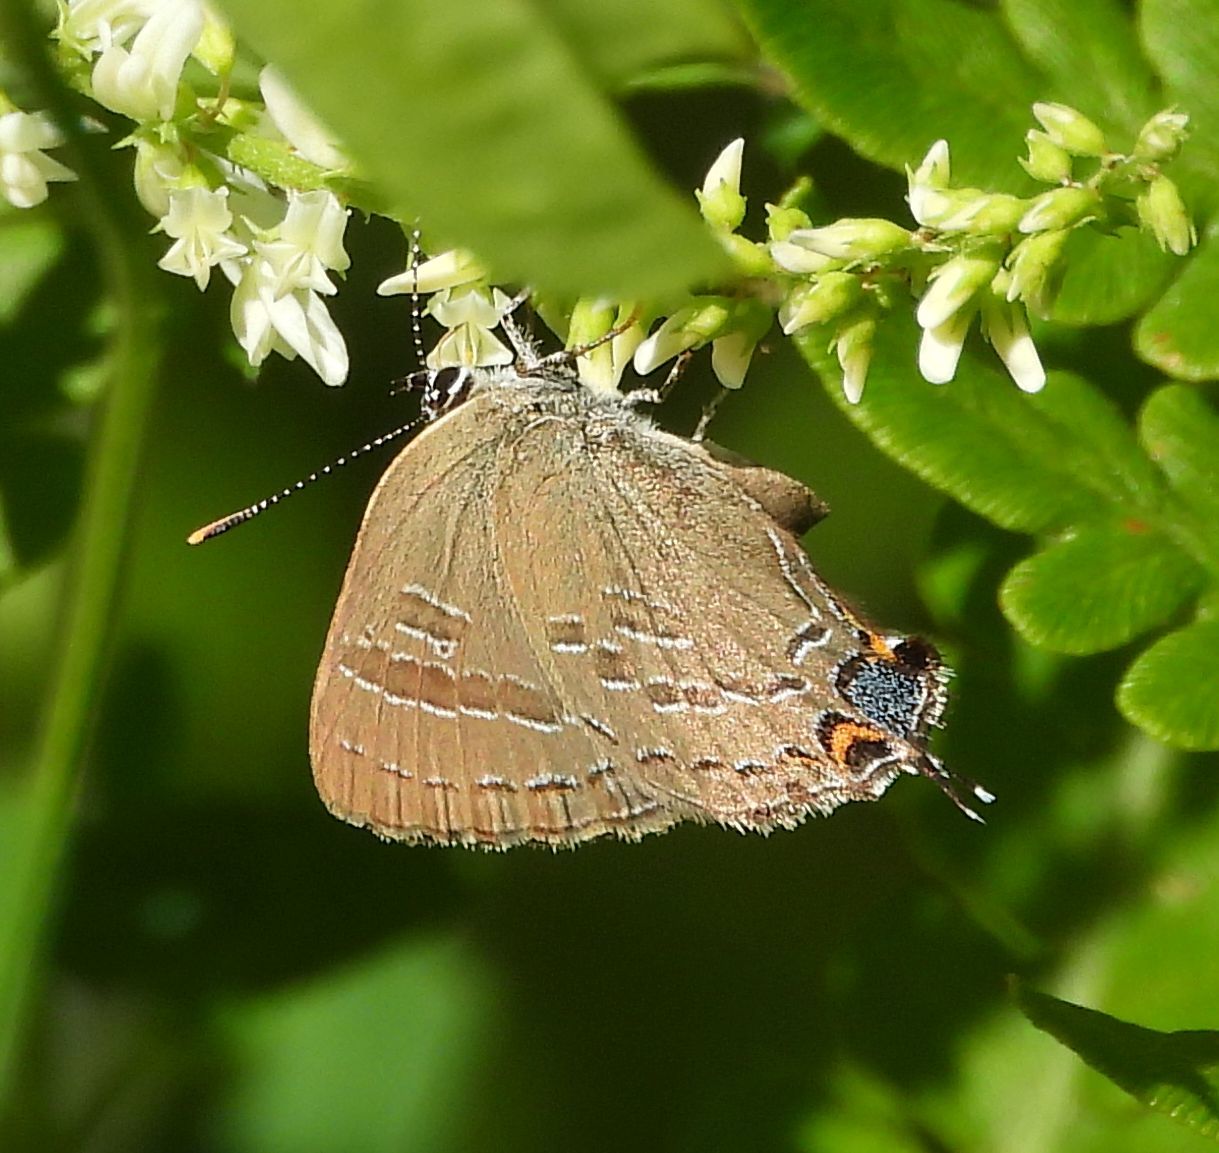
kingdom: Animalia
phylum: Arthropoda
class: Insecta
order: Lepidoptera
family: Lycaenidae
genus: Satyrium
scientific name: Satyrium calanus
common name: Banded hairstreak
